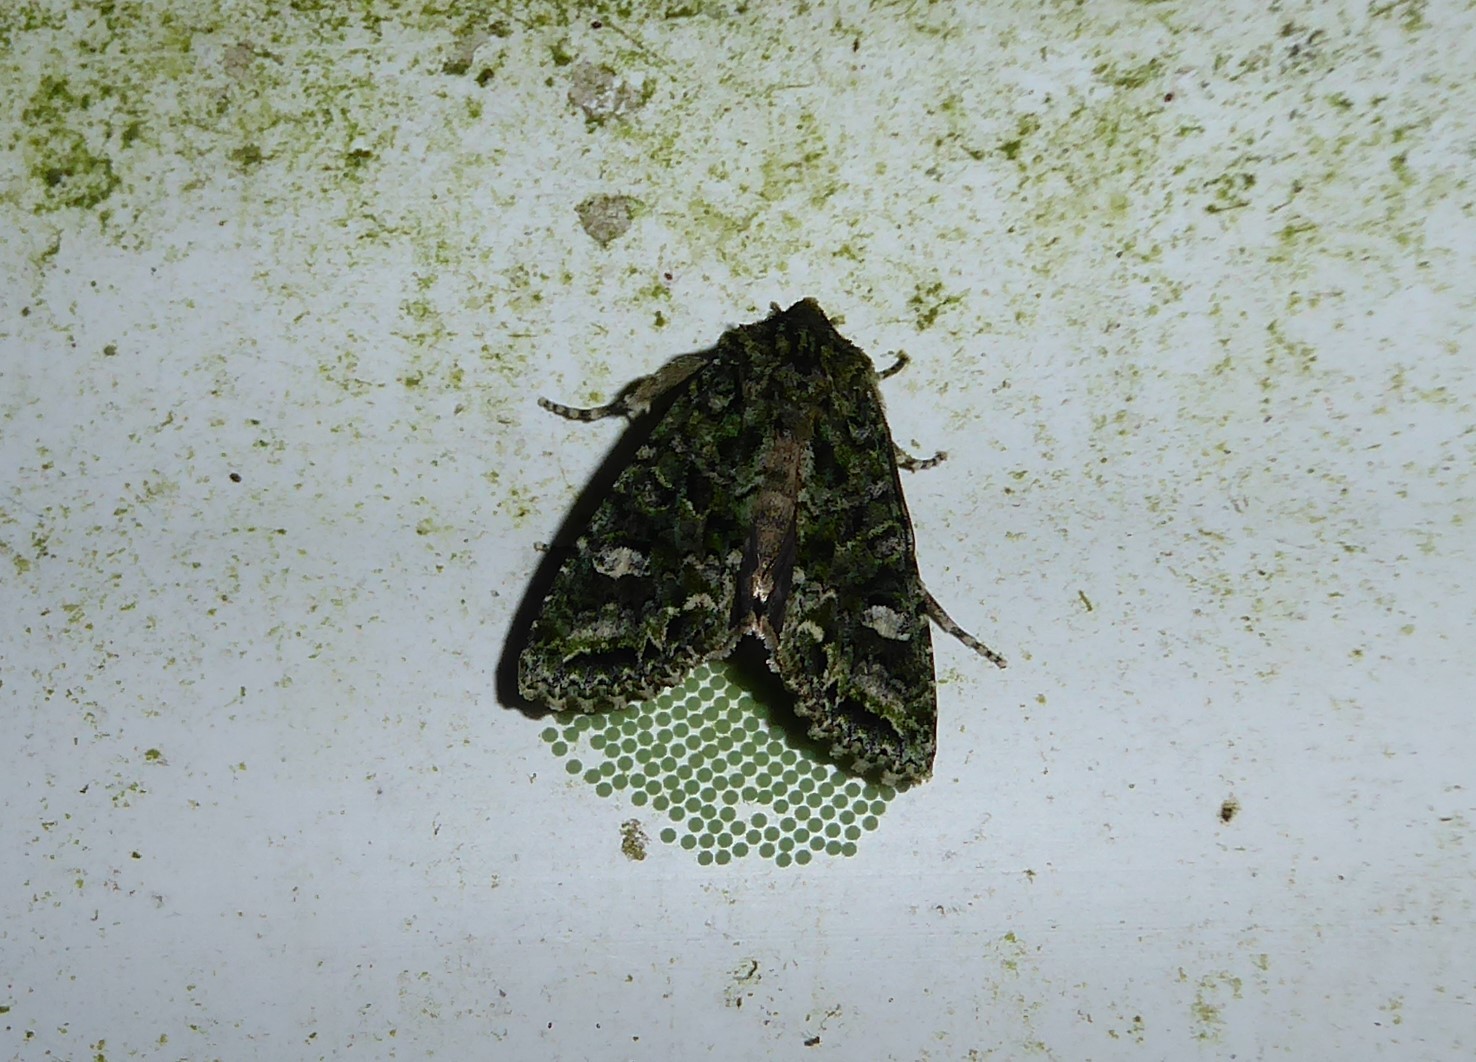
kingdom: Animalia
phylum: Arthropoda
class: Insecta
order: Lepidoptera
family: Noctuidae
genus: Ichneutica
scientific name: Ichneutica
